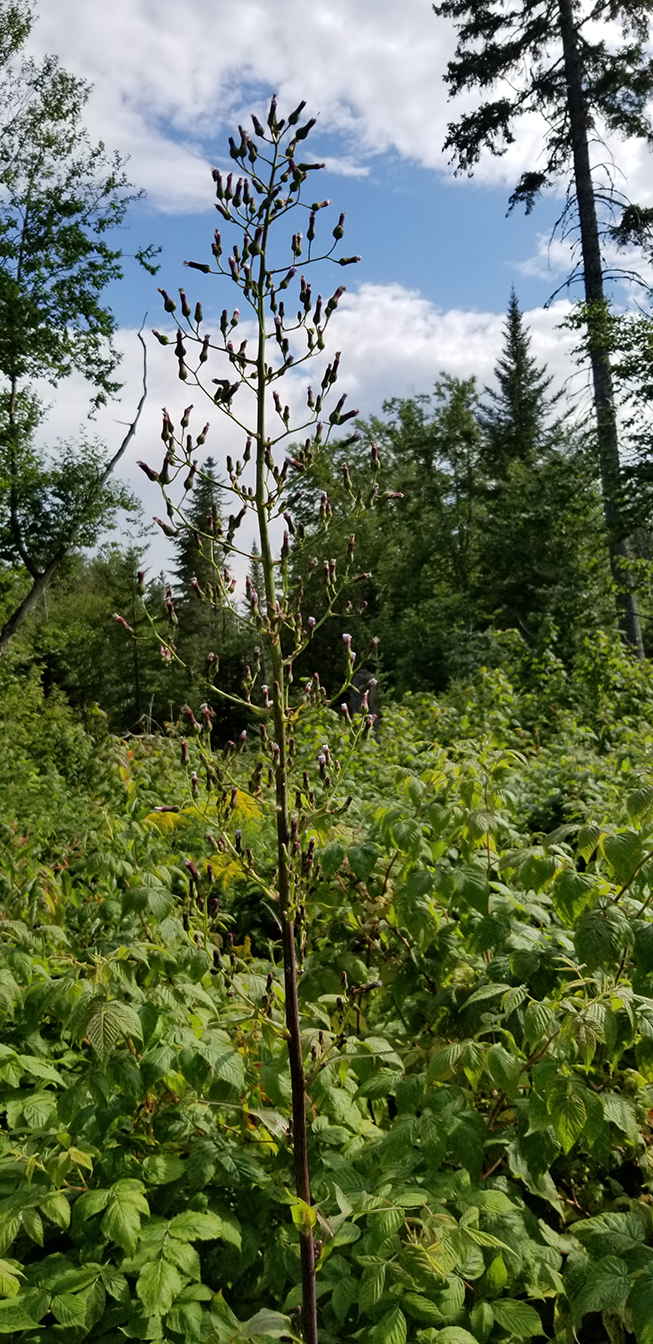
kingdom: Plantae
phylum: Tracheophyta
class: Magnoliopsida
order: Asterales
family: Asteraceae
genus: Lactuca
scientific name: Lactuca biennis
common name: Blue wood lettuce
